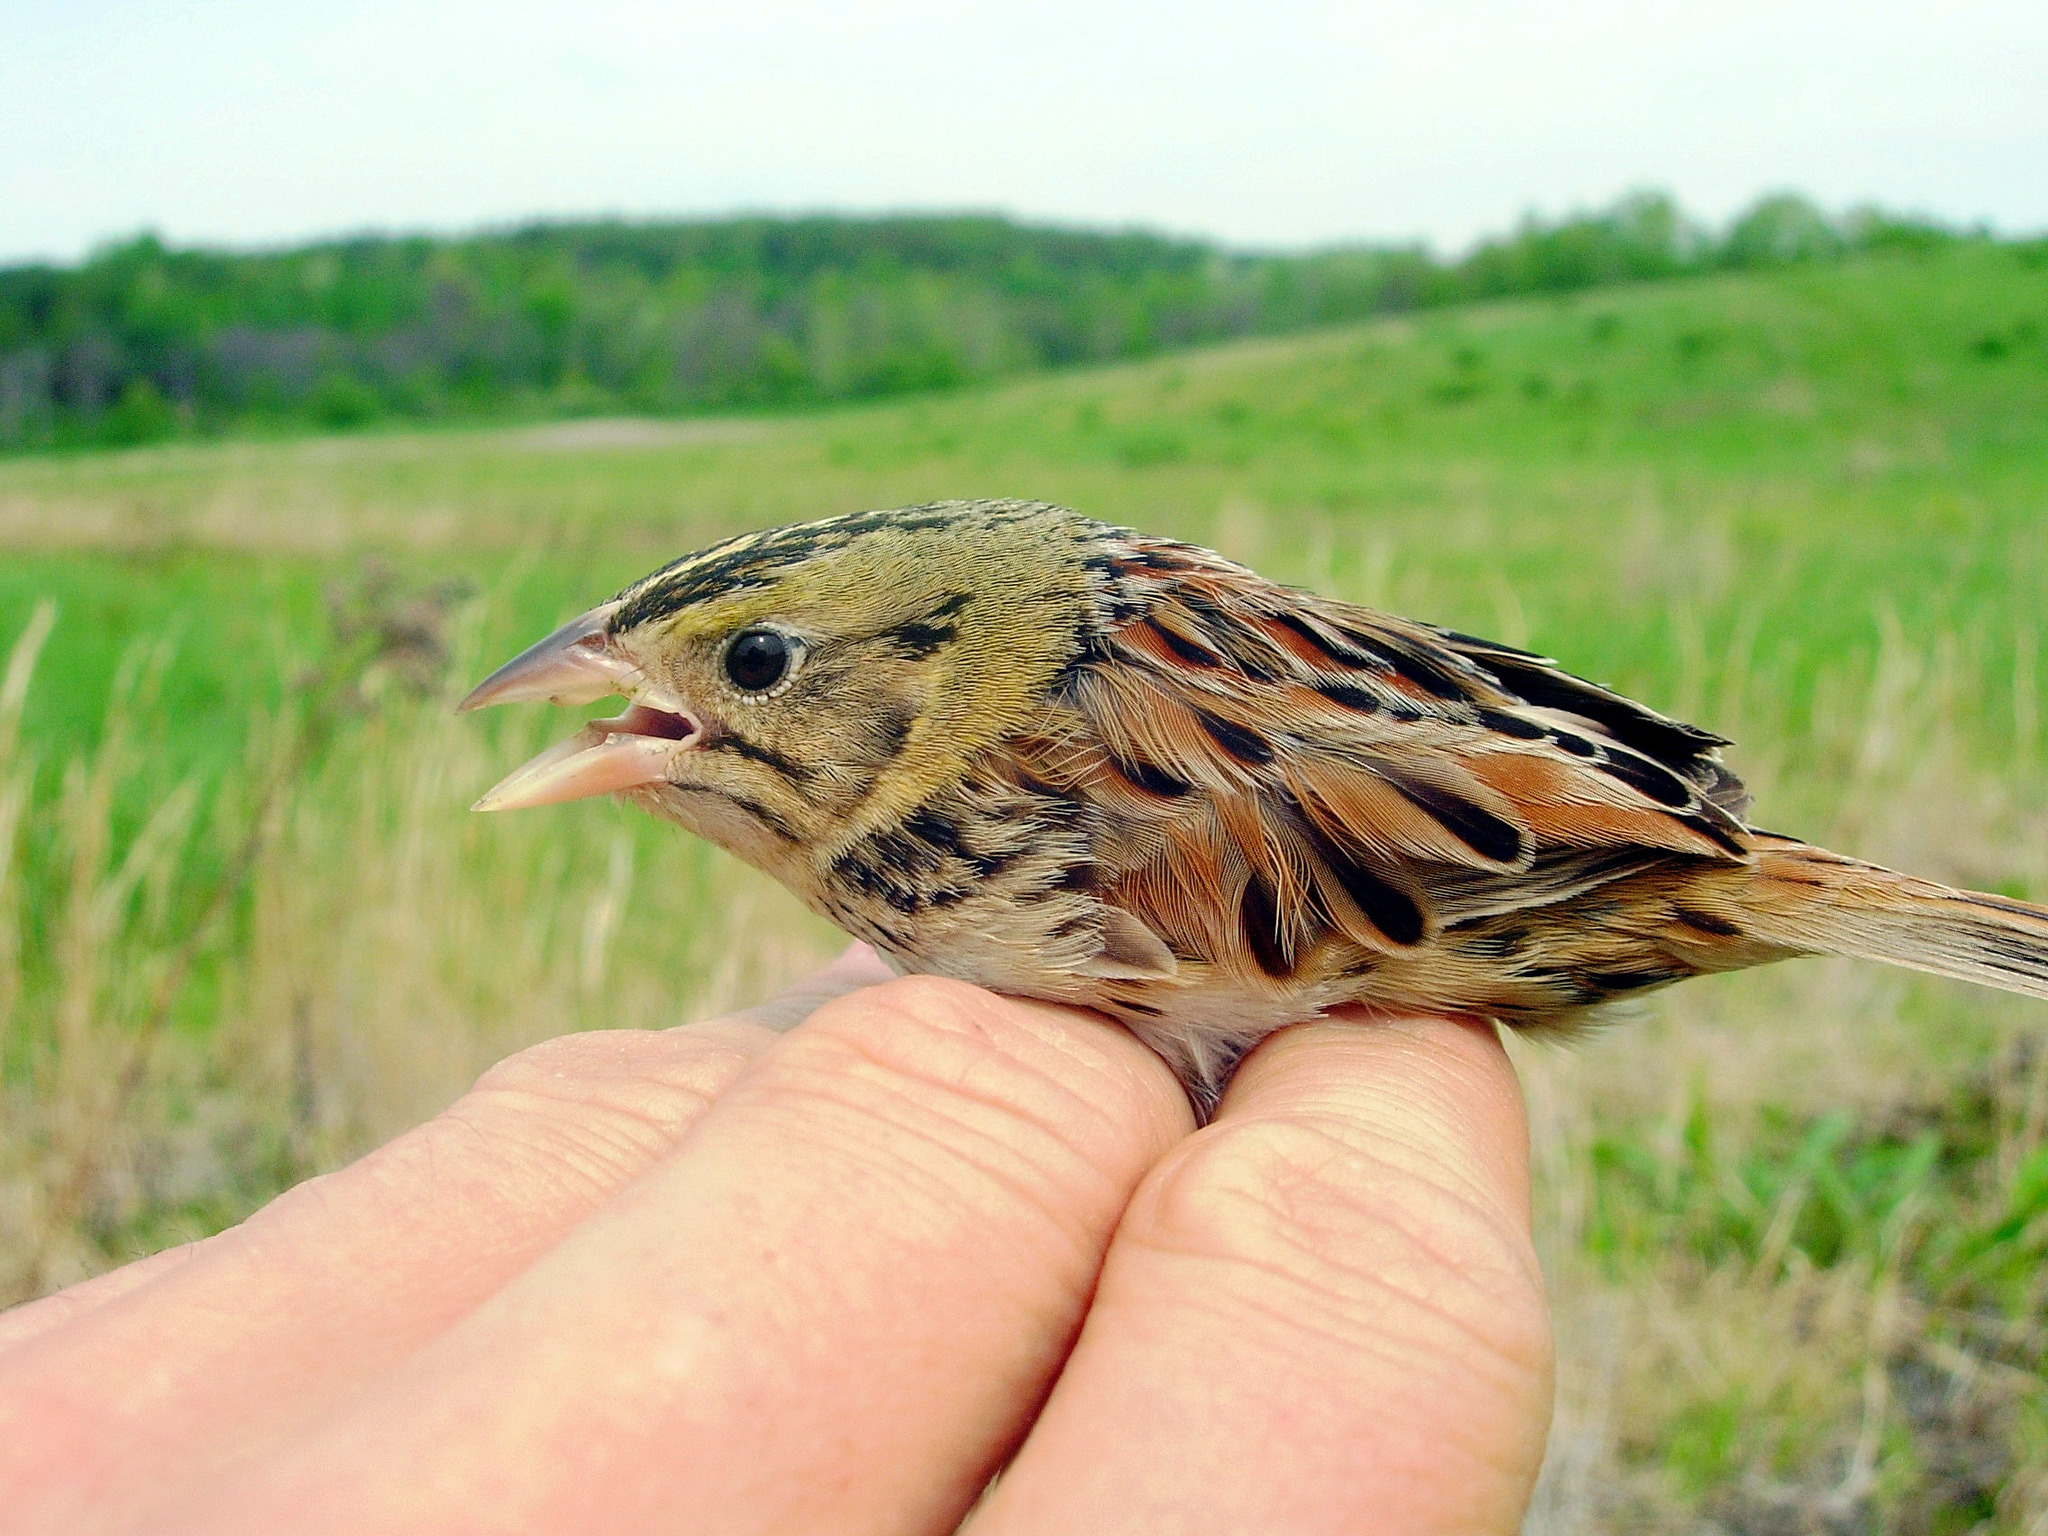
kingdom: Animalia
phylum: Chordata
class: Aves
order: Passeriformes
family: Passerellidae
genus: Centronyx
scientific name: Centronyx henslowii
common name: Henslow's sparrow
